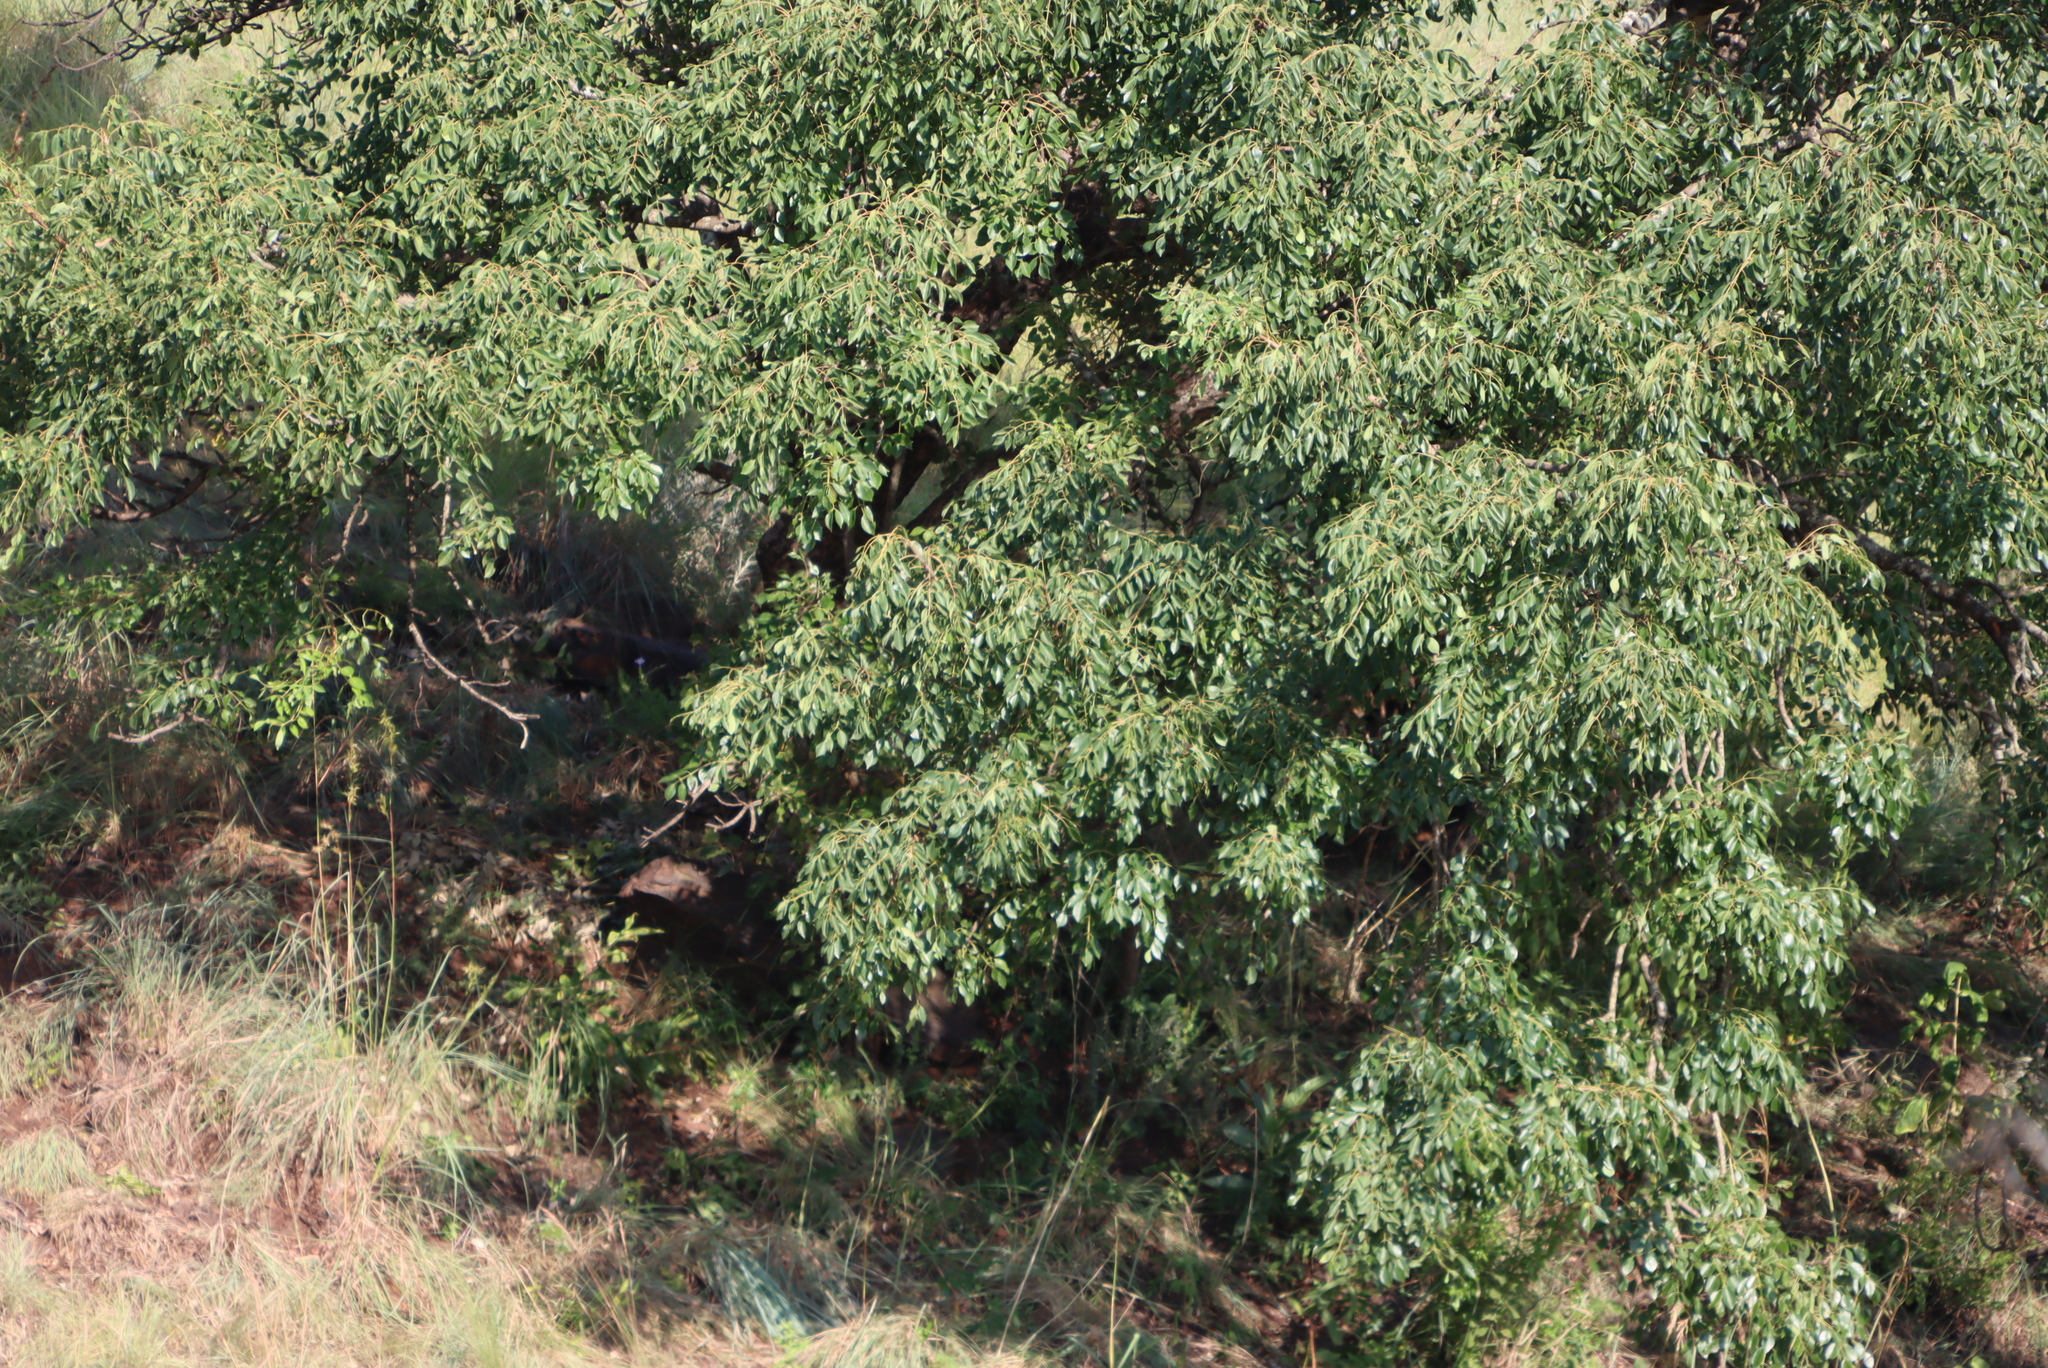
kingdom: Plantae
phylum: Tracheophyta
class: Magnoliopsida
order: Sapindales
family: Anacardiaceae
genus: Sclerocarya
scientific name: Sclerocarya birrea
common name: Marula
